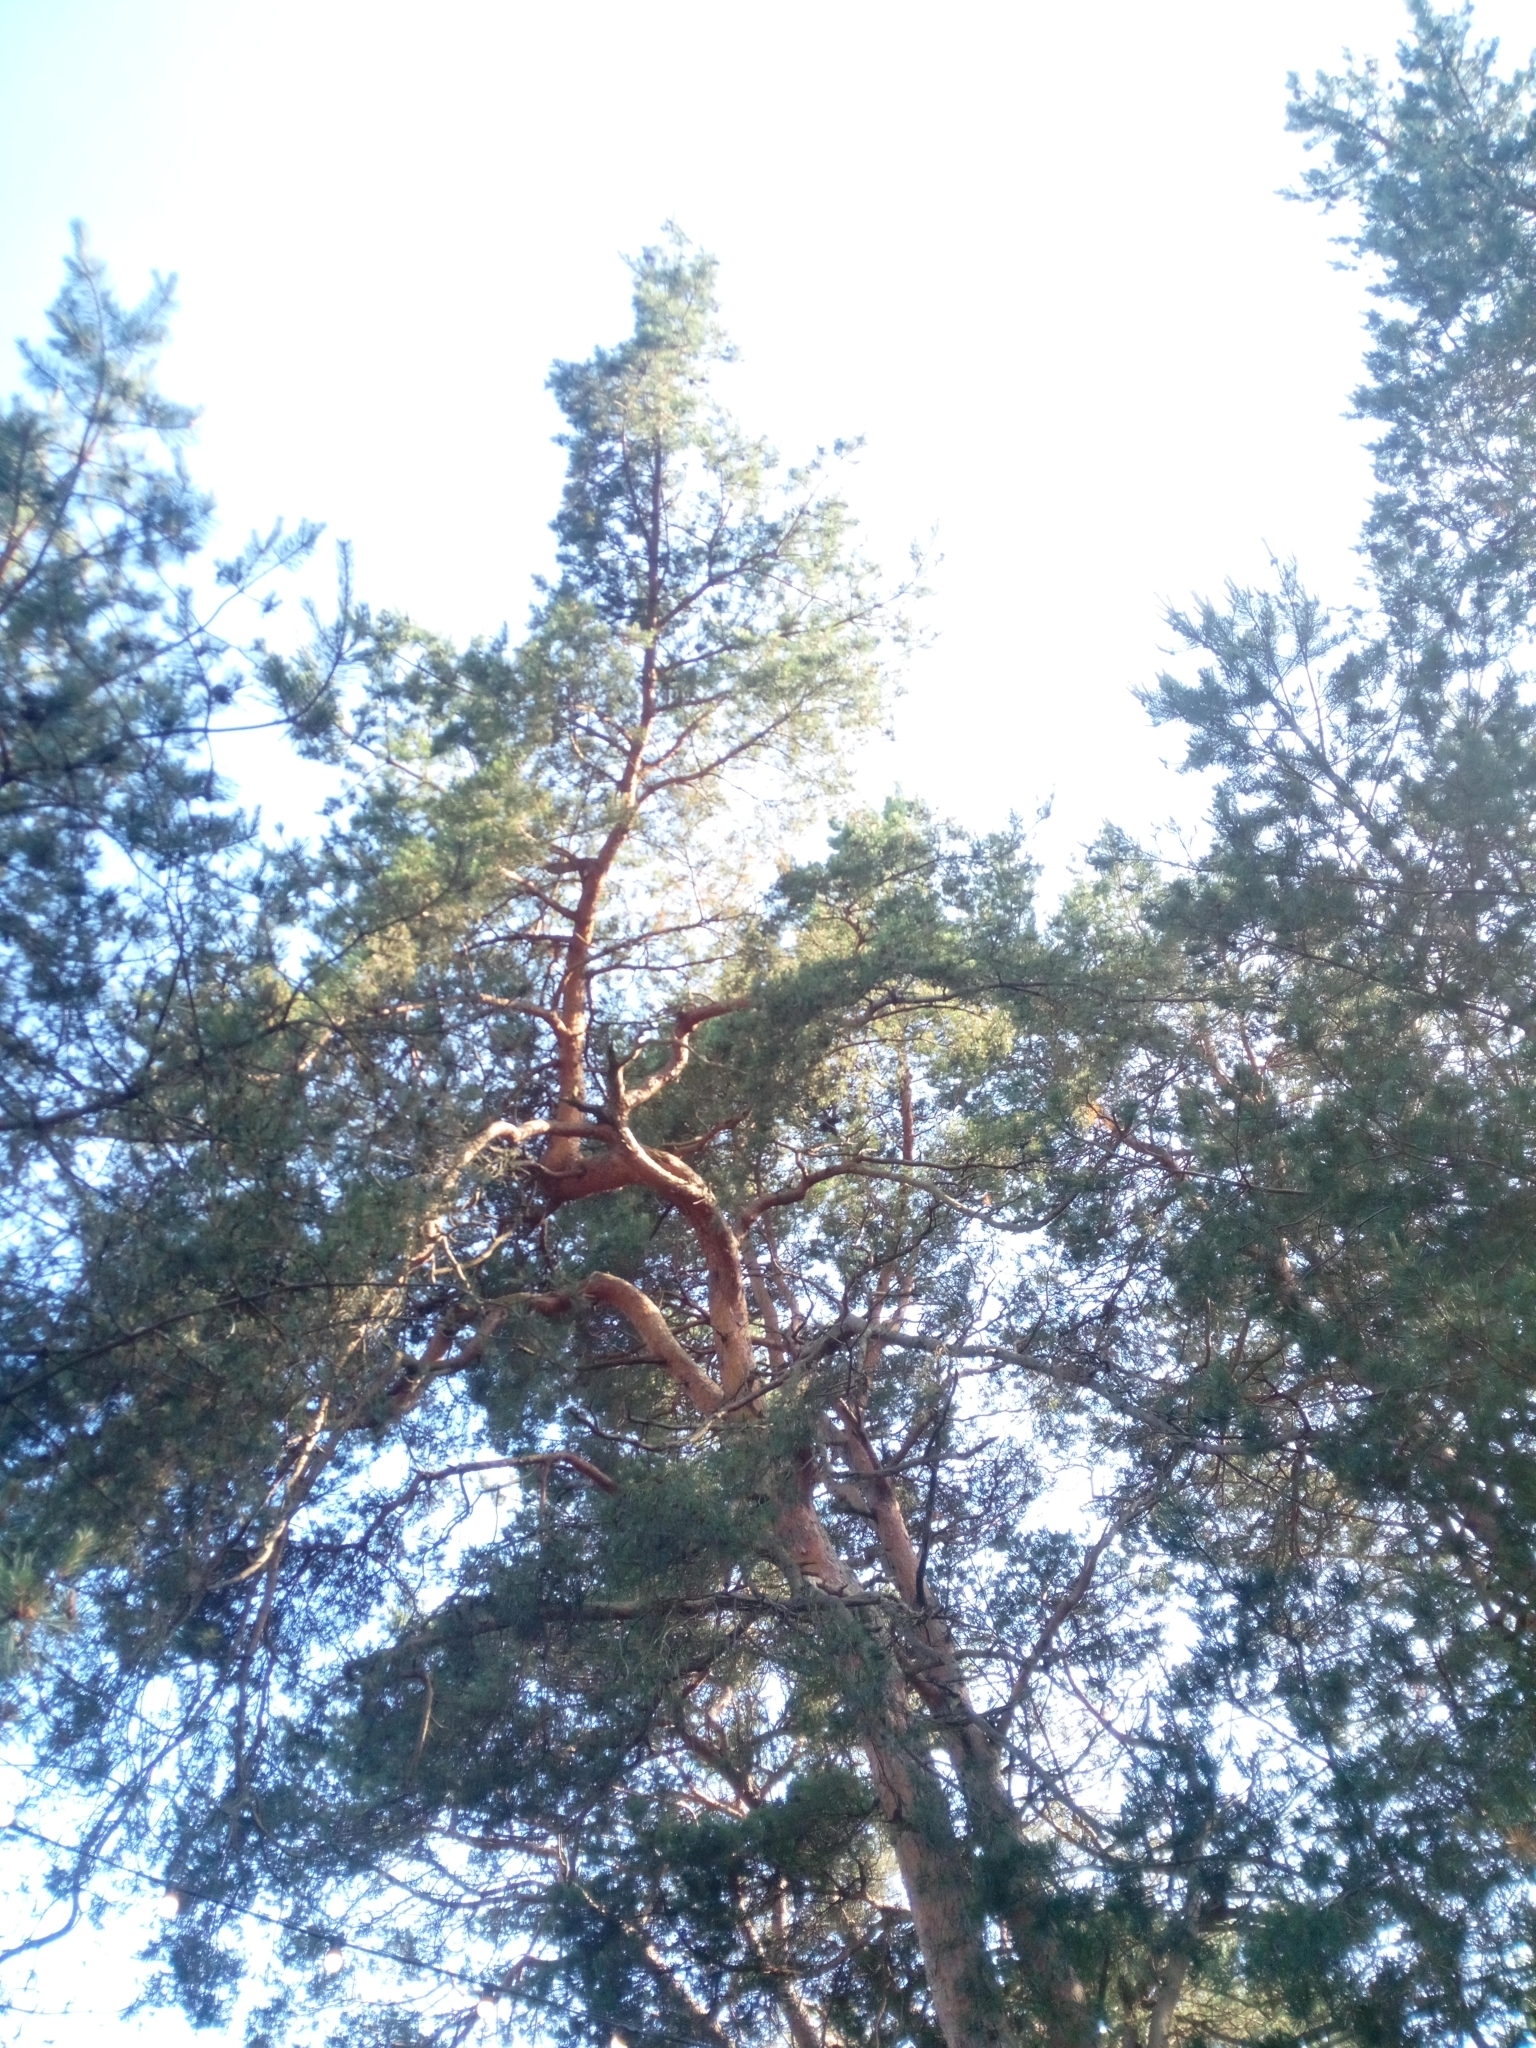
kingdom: Plantae
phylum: Tracheophyta
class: Pinopsida
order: Pinales
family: Pinaceae
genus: Pinus
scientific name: Pinus sylvestris
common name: Scots pine
